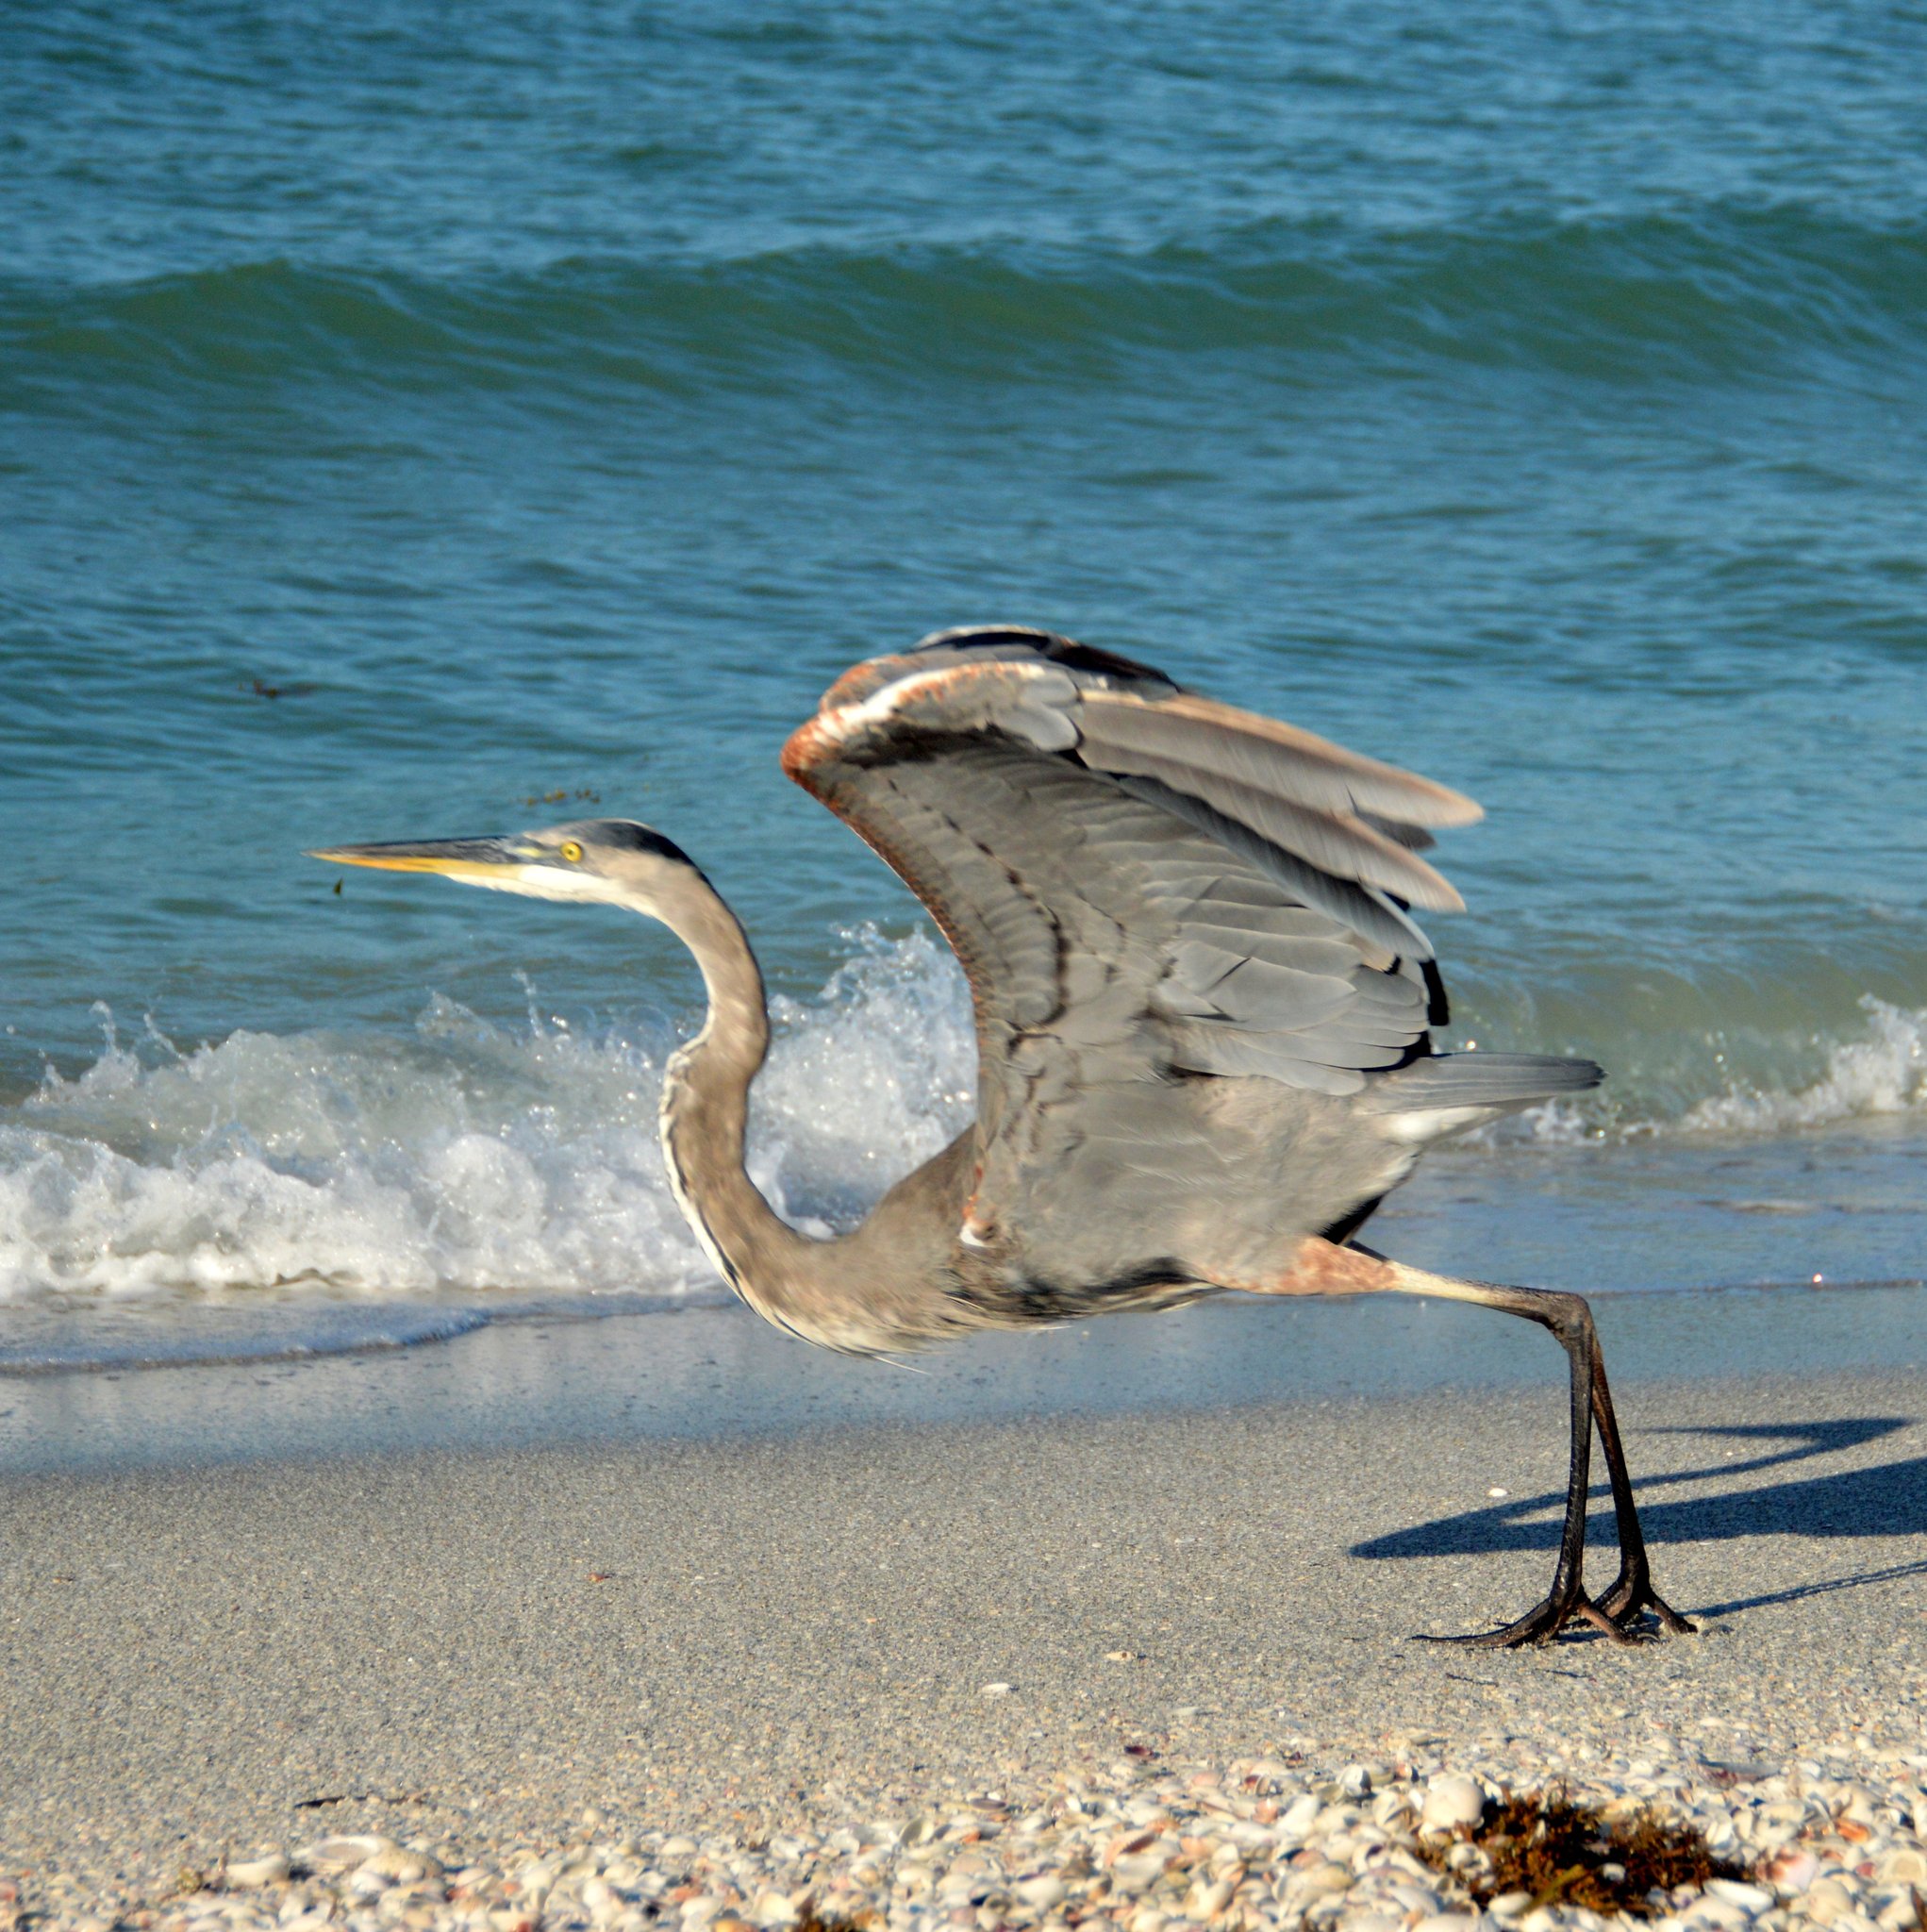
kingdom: Animalia
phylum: Chordata
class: Aves
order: Pelecaniformes
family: Ardeidae
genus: Ardea
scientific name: Ardea herodias
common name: Great blue heron
